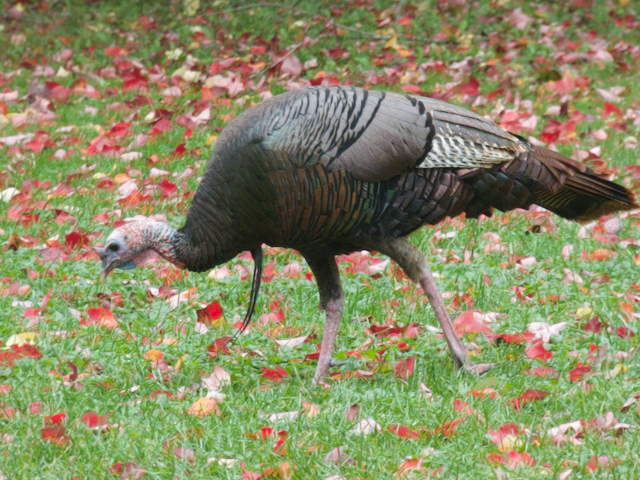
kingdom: Animalia
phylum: Chordata
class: Aves
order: Galliformes
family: Phasianidae
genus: Meleagris
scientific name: Meleagris gallopavo
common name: Wild turkey
